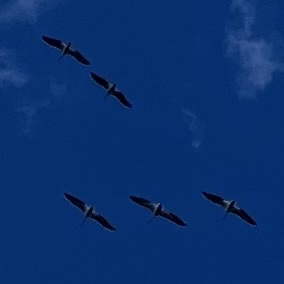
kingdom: Animalia
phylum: Chordata
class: Aves
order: Pelecaniformes
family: Pelecanidae
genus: Pelecanus
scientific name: Pelecanus erythrorhynchos
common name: American white pelican
